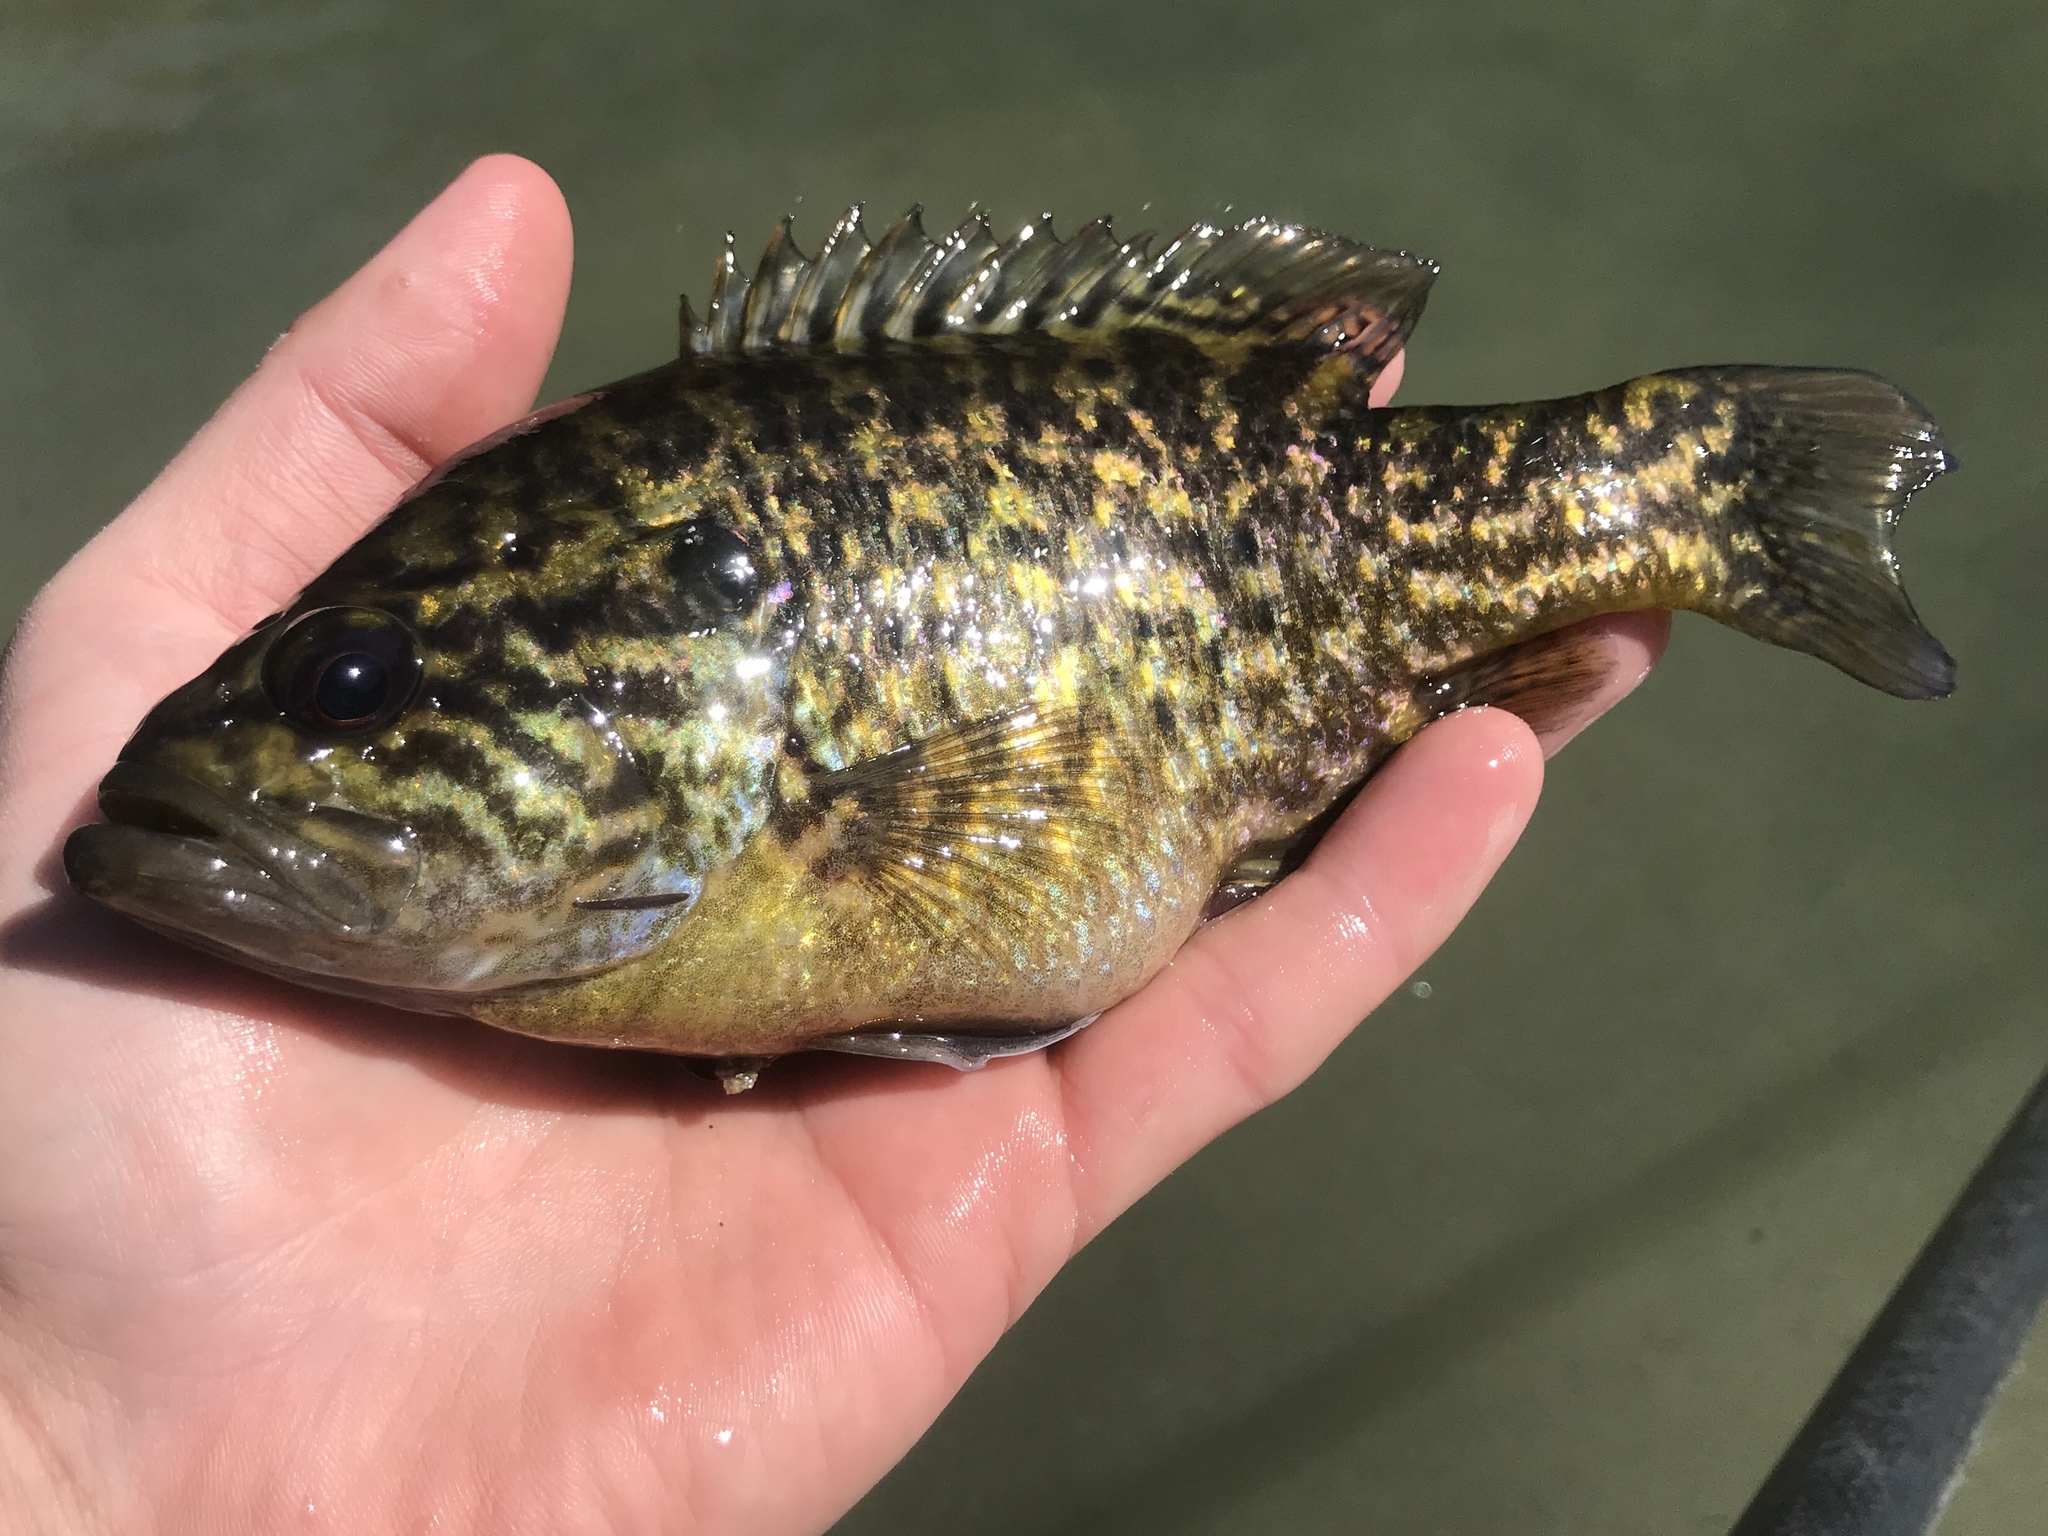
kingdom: Animalia
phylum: Chordata
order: Perciformes
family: Centrarchidae
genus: Lepomis
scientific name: Lepomis gulosus
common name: Warmouth
